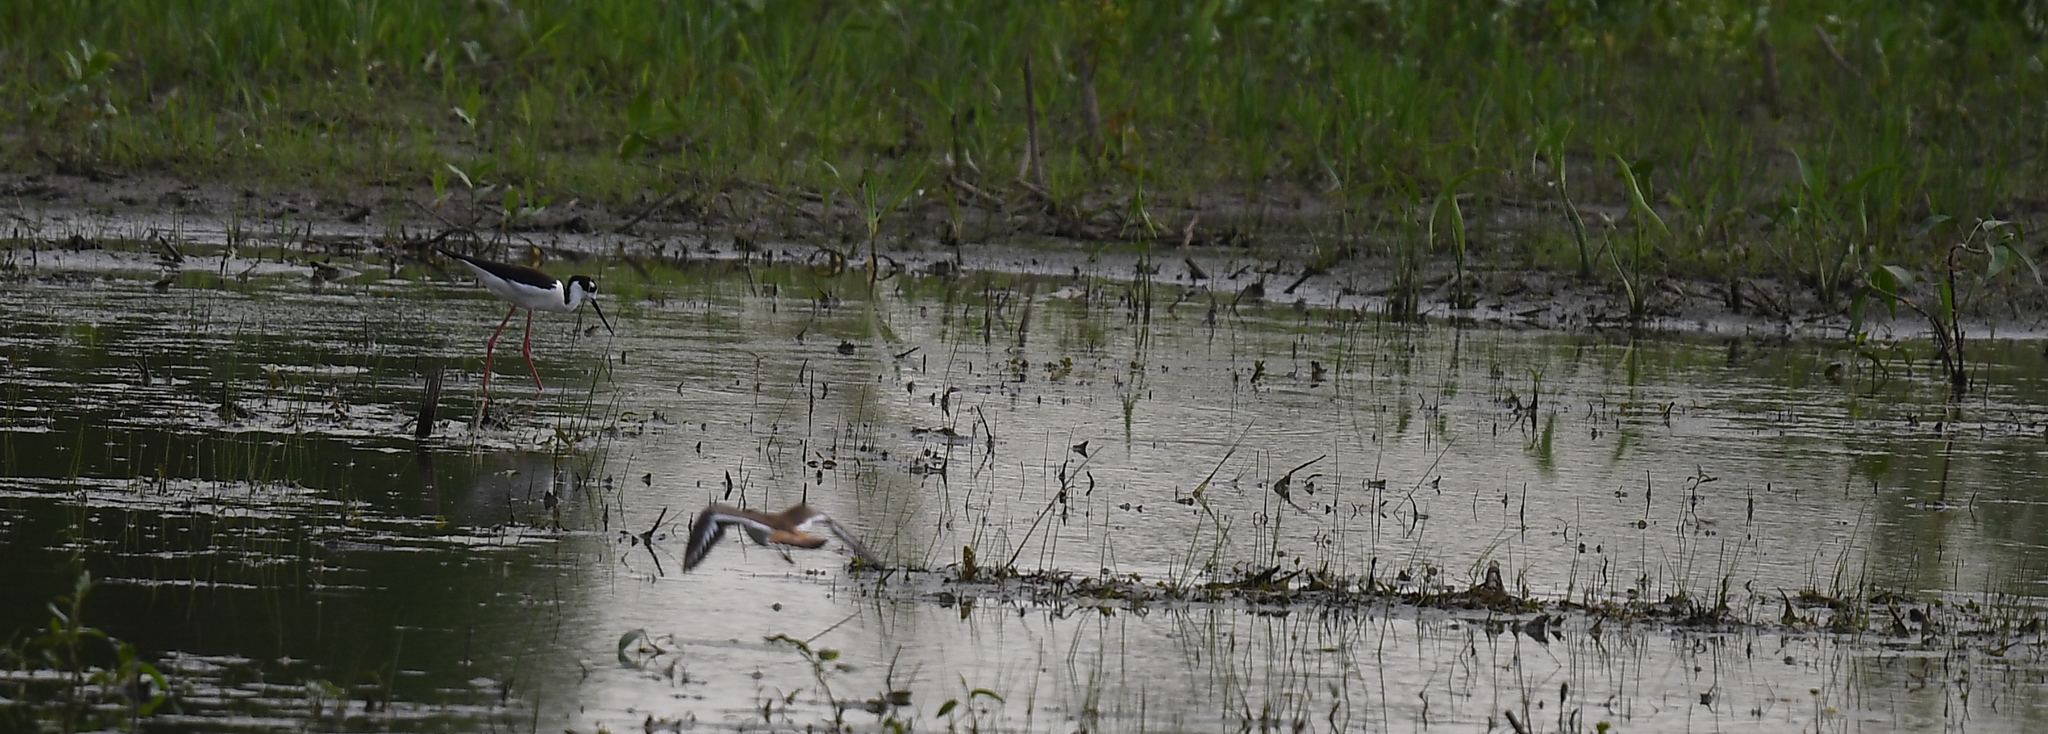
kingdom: Animalia
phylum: Chordata
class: Aves
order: Charadriiformes
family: Recurvirostridae
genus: Himantopus
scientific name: Himantopus mexicanus
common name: Black-necked stilt
